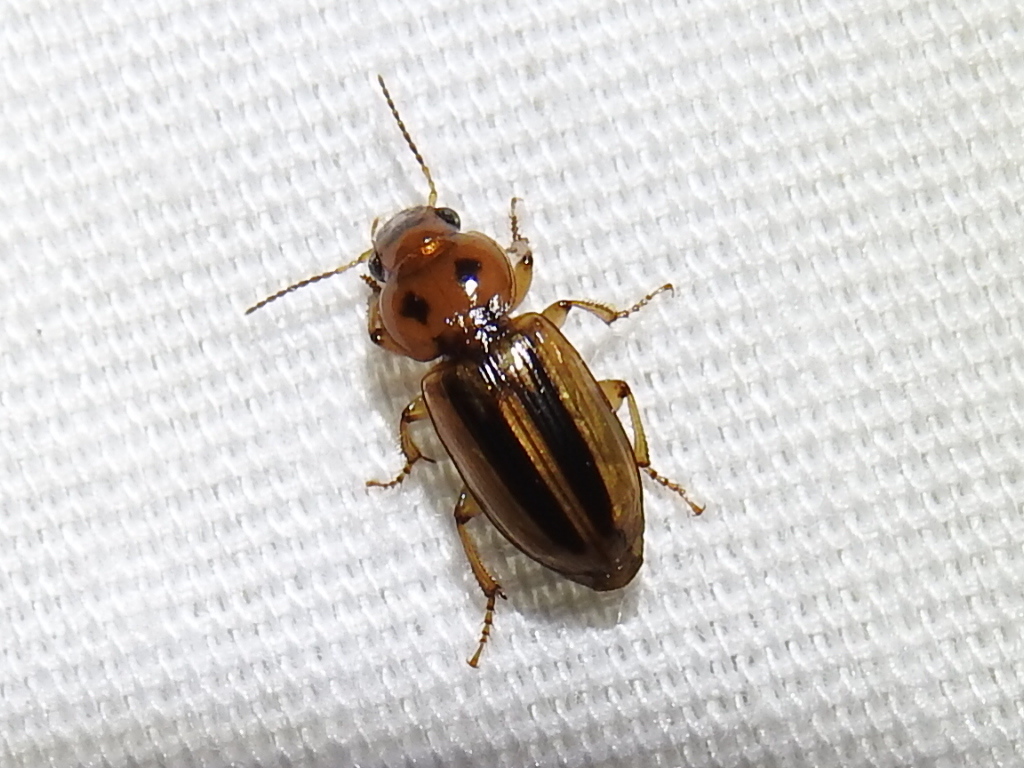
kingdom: Animalia
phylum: Arthropoda
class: Insecta
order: Coleoptera
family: Carabidae
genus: Stenolophus
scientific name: Stenolophus lineola
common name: Lined stenolophus
